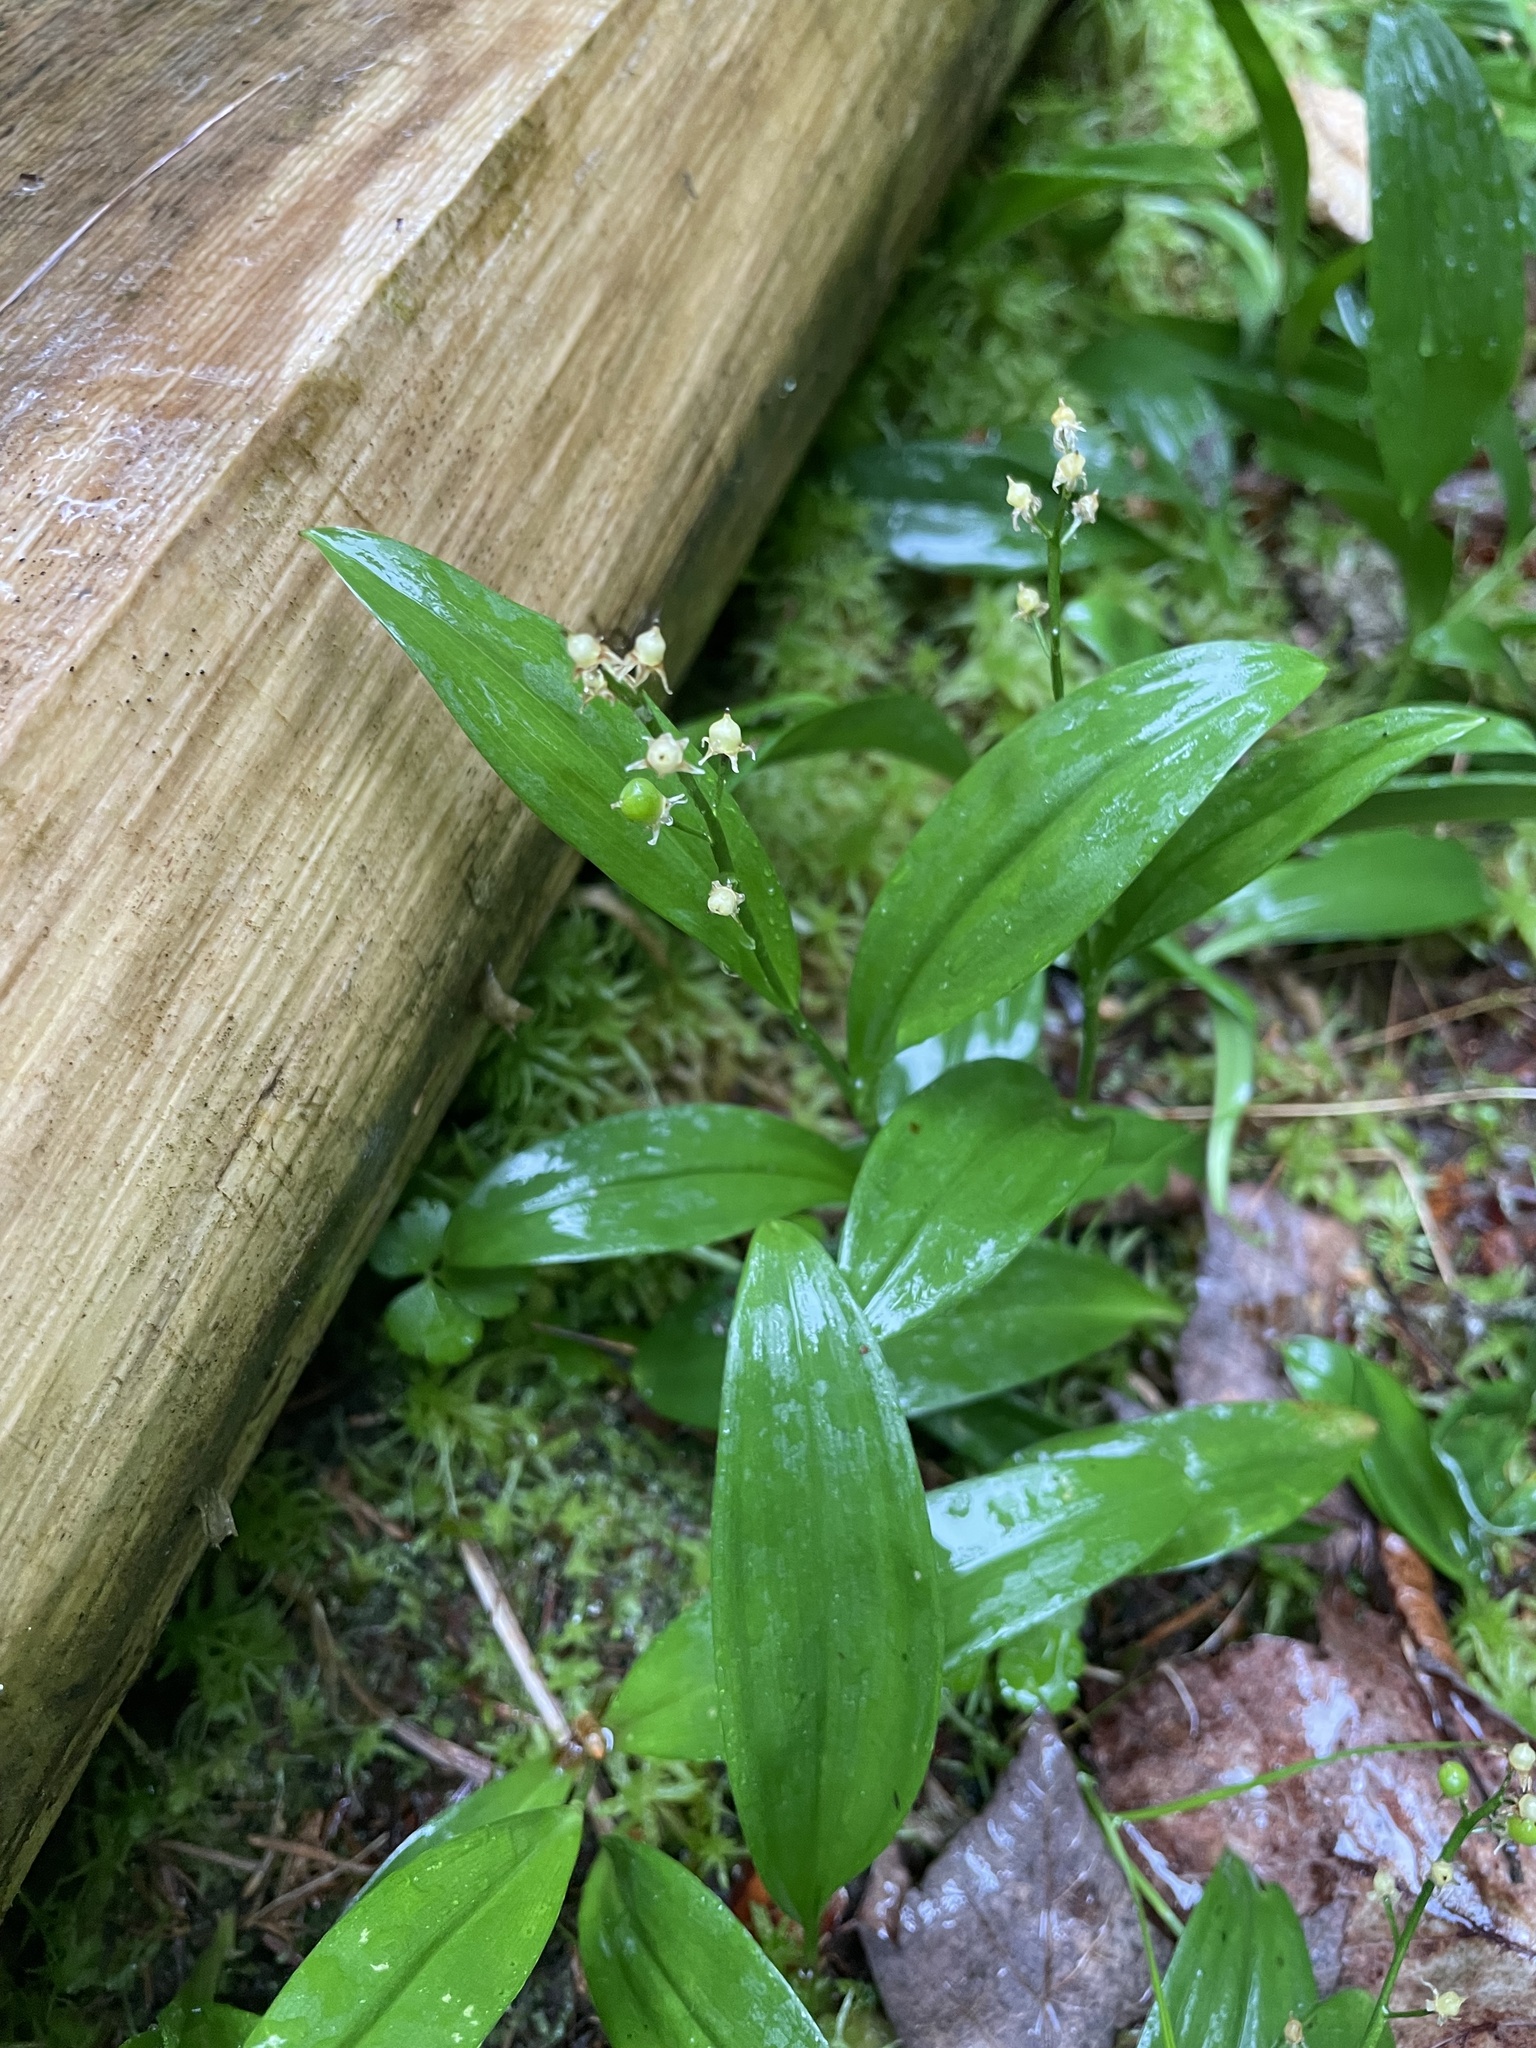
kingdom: Plantae
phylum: Tracheophyta
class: Liliopsida
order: Asparagales
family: Asparagaceae
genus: Maianthemum
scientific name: Maianthemum trifolium
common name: Swamp false solomon's seal
